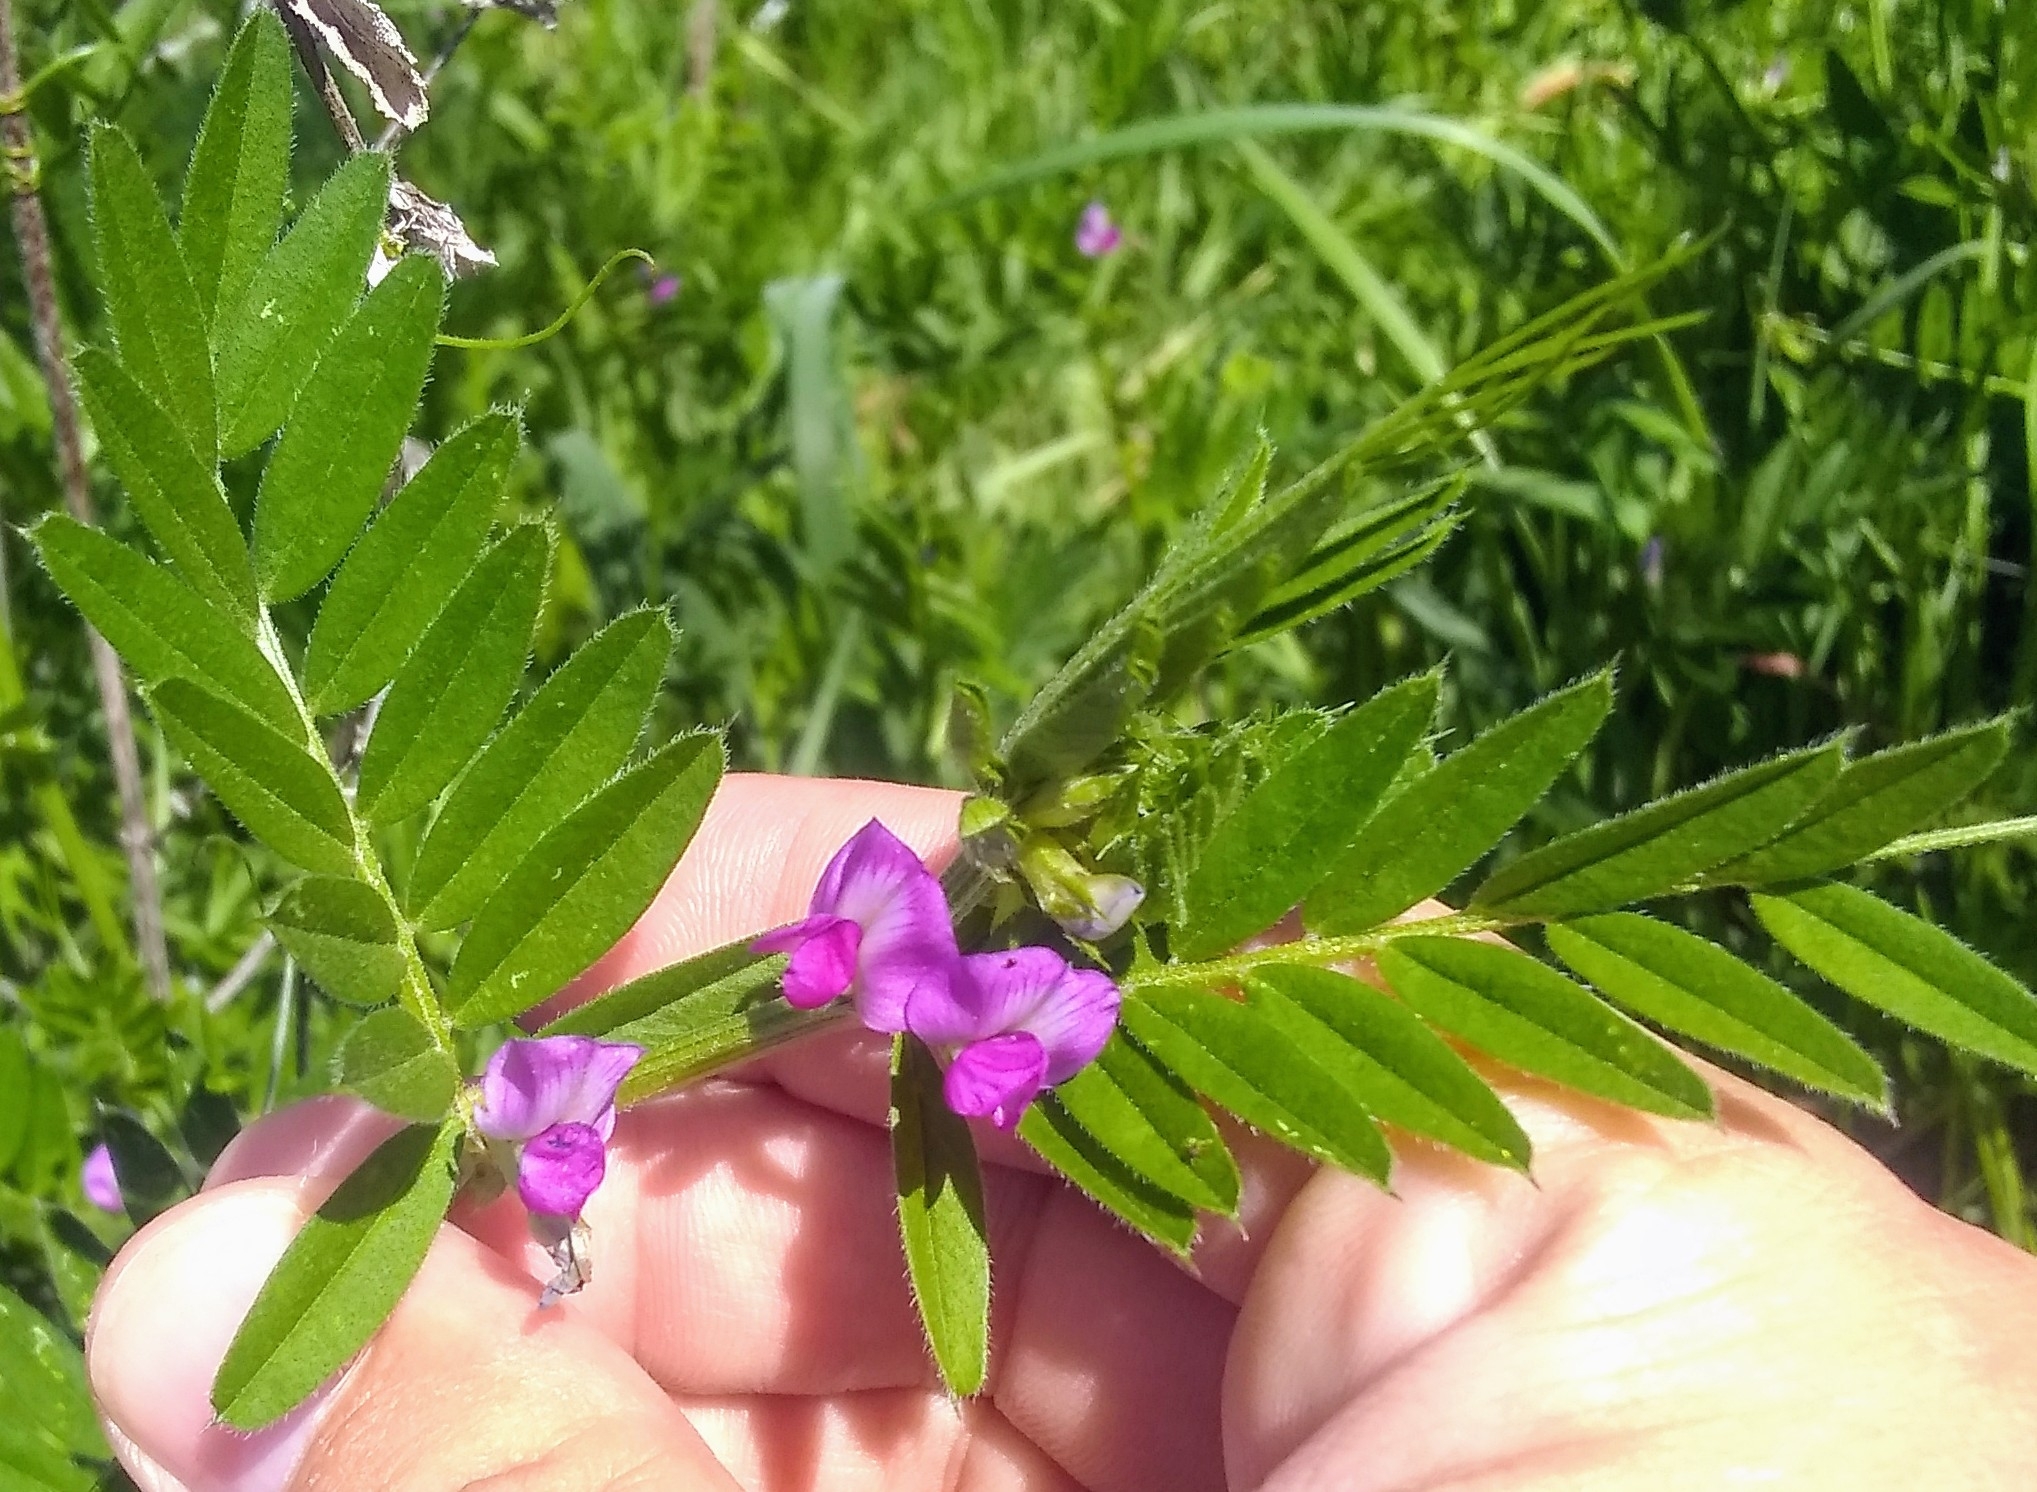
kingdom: Plantae
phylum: Tracheophyta
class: Magnoliopsida
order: Fabales
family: Fabaceae
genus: Vicia
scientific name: Vicia sativa
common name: Garden vetch
